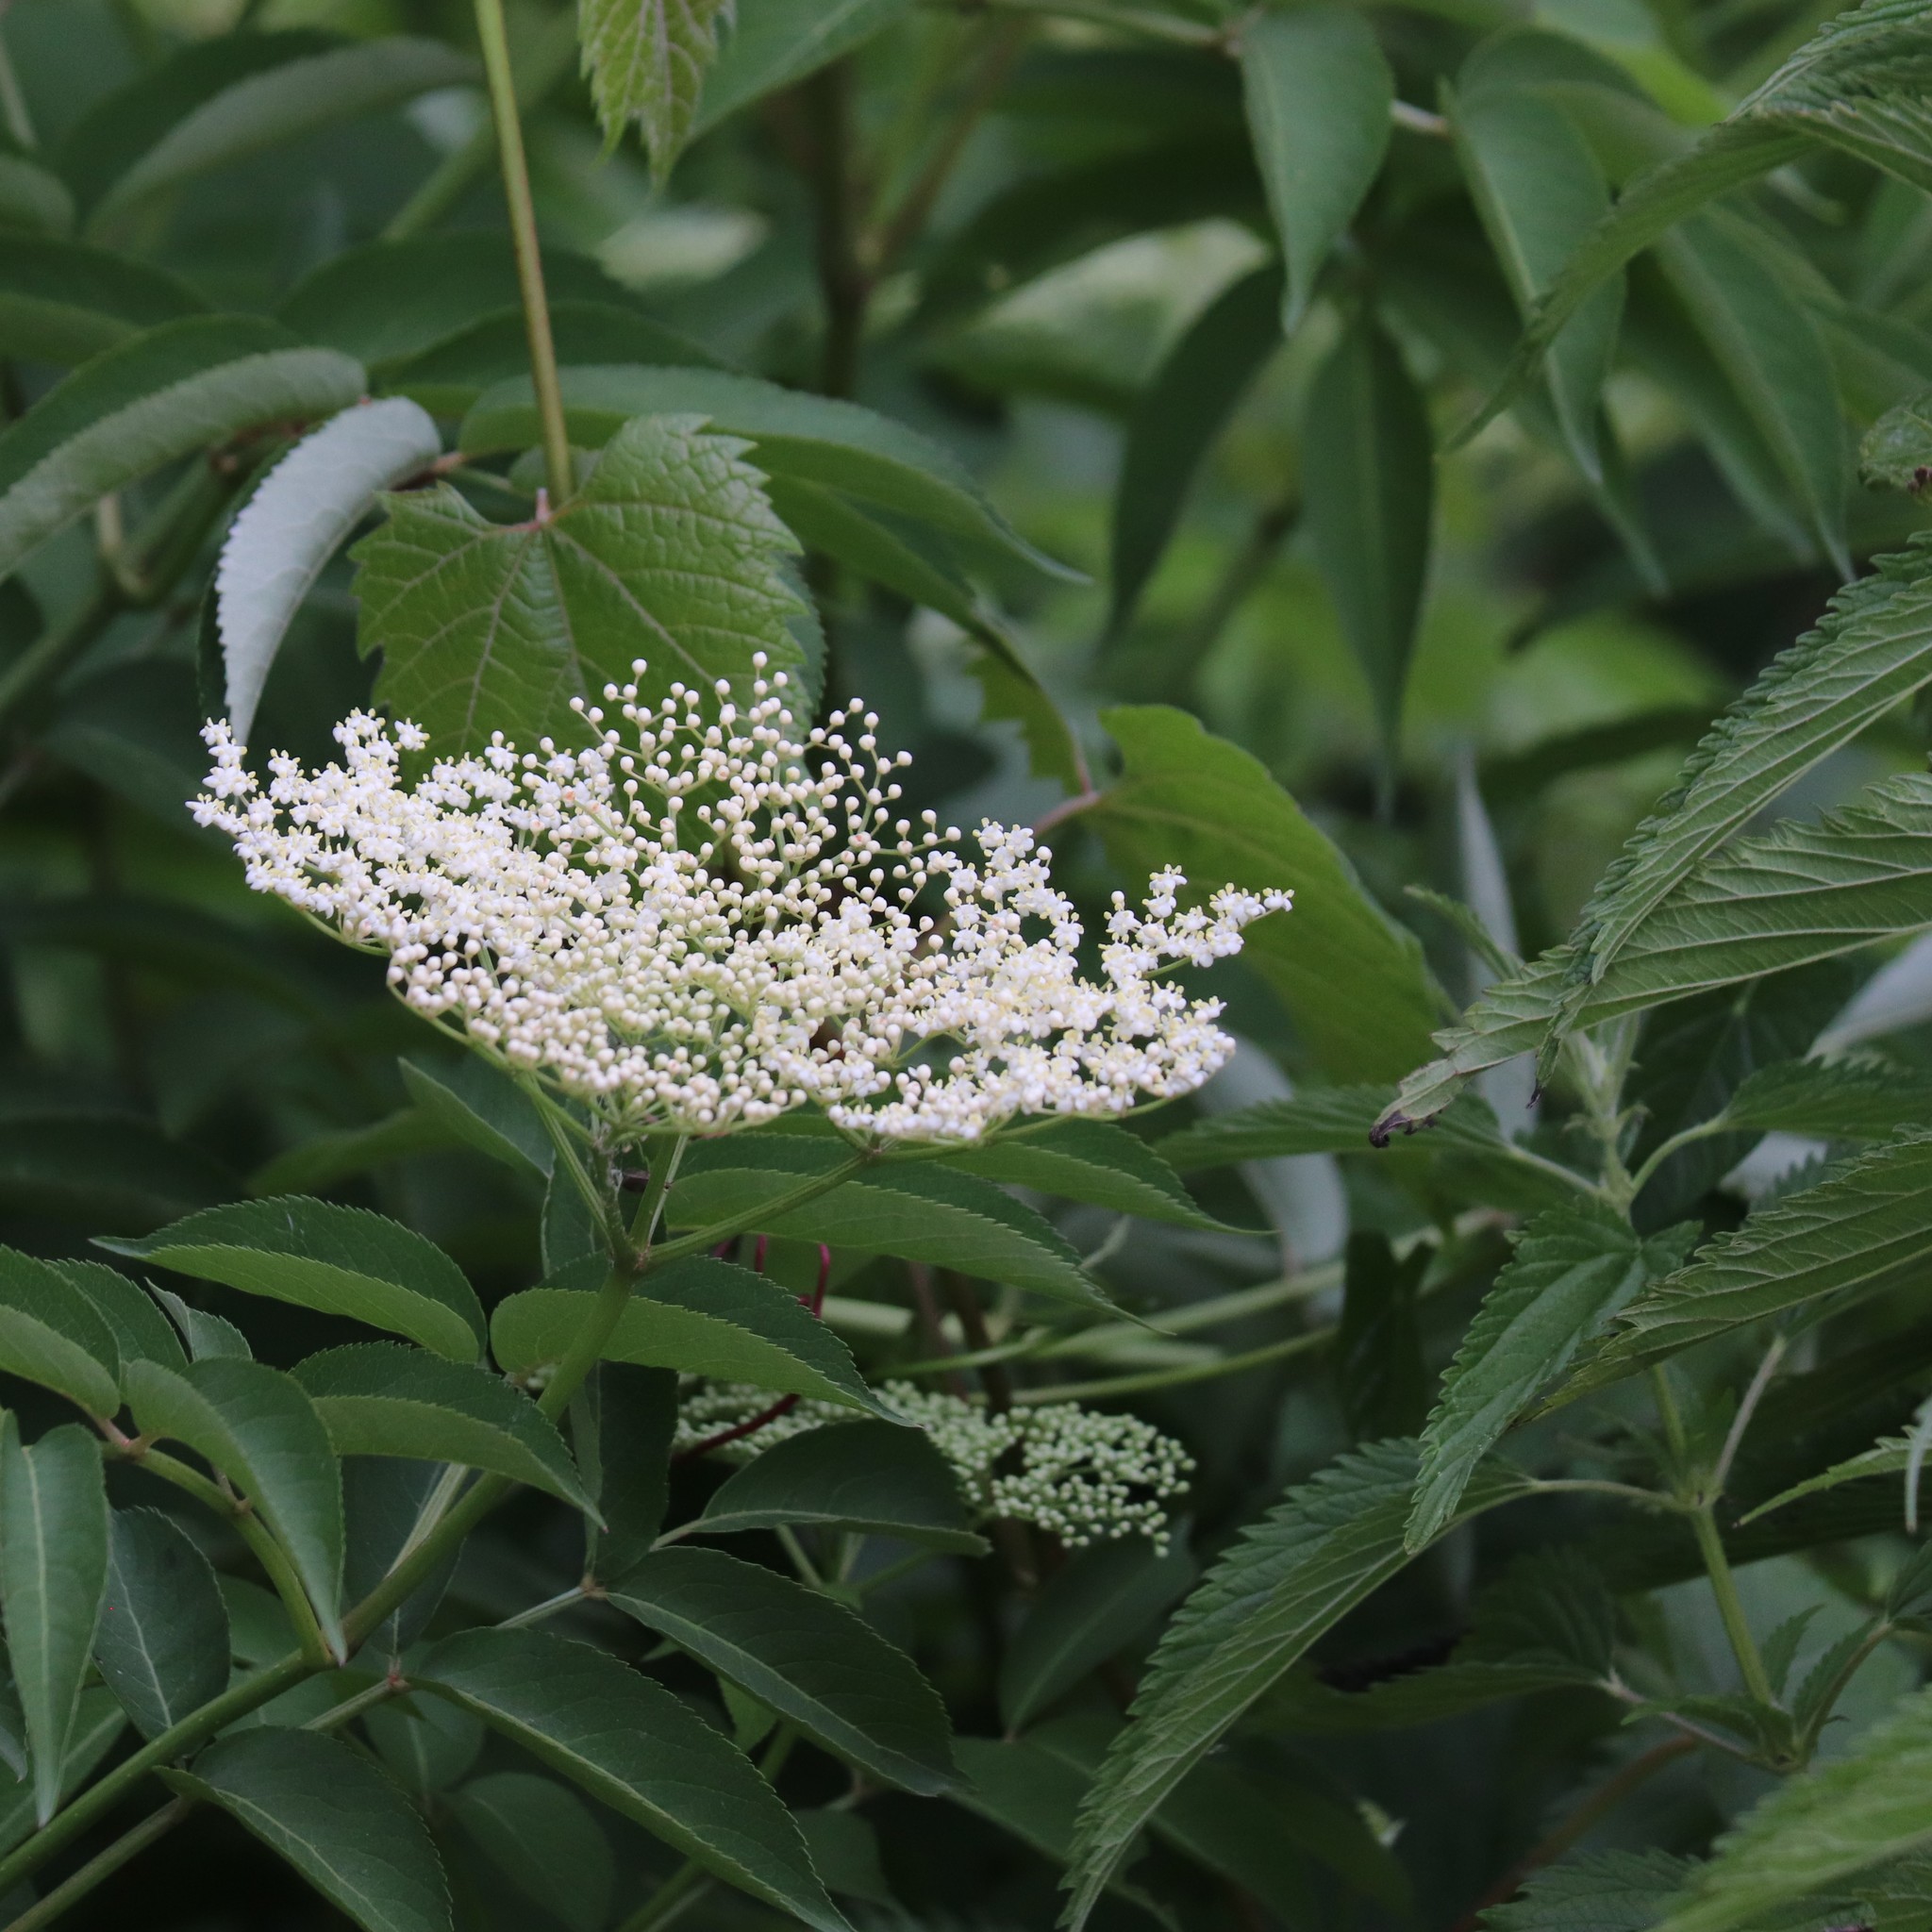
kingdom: Plantae
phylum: Tracheophyta
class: Magnoliopsida
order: Dipsacales
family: Viburnaceae
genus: Sambucus
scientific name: Sambucus canadensis
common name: American elder
